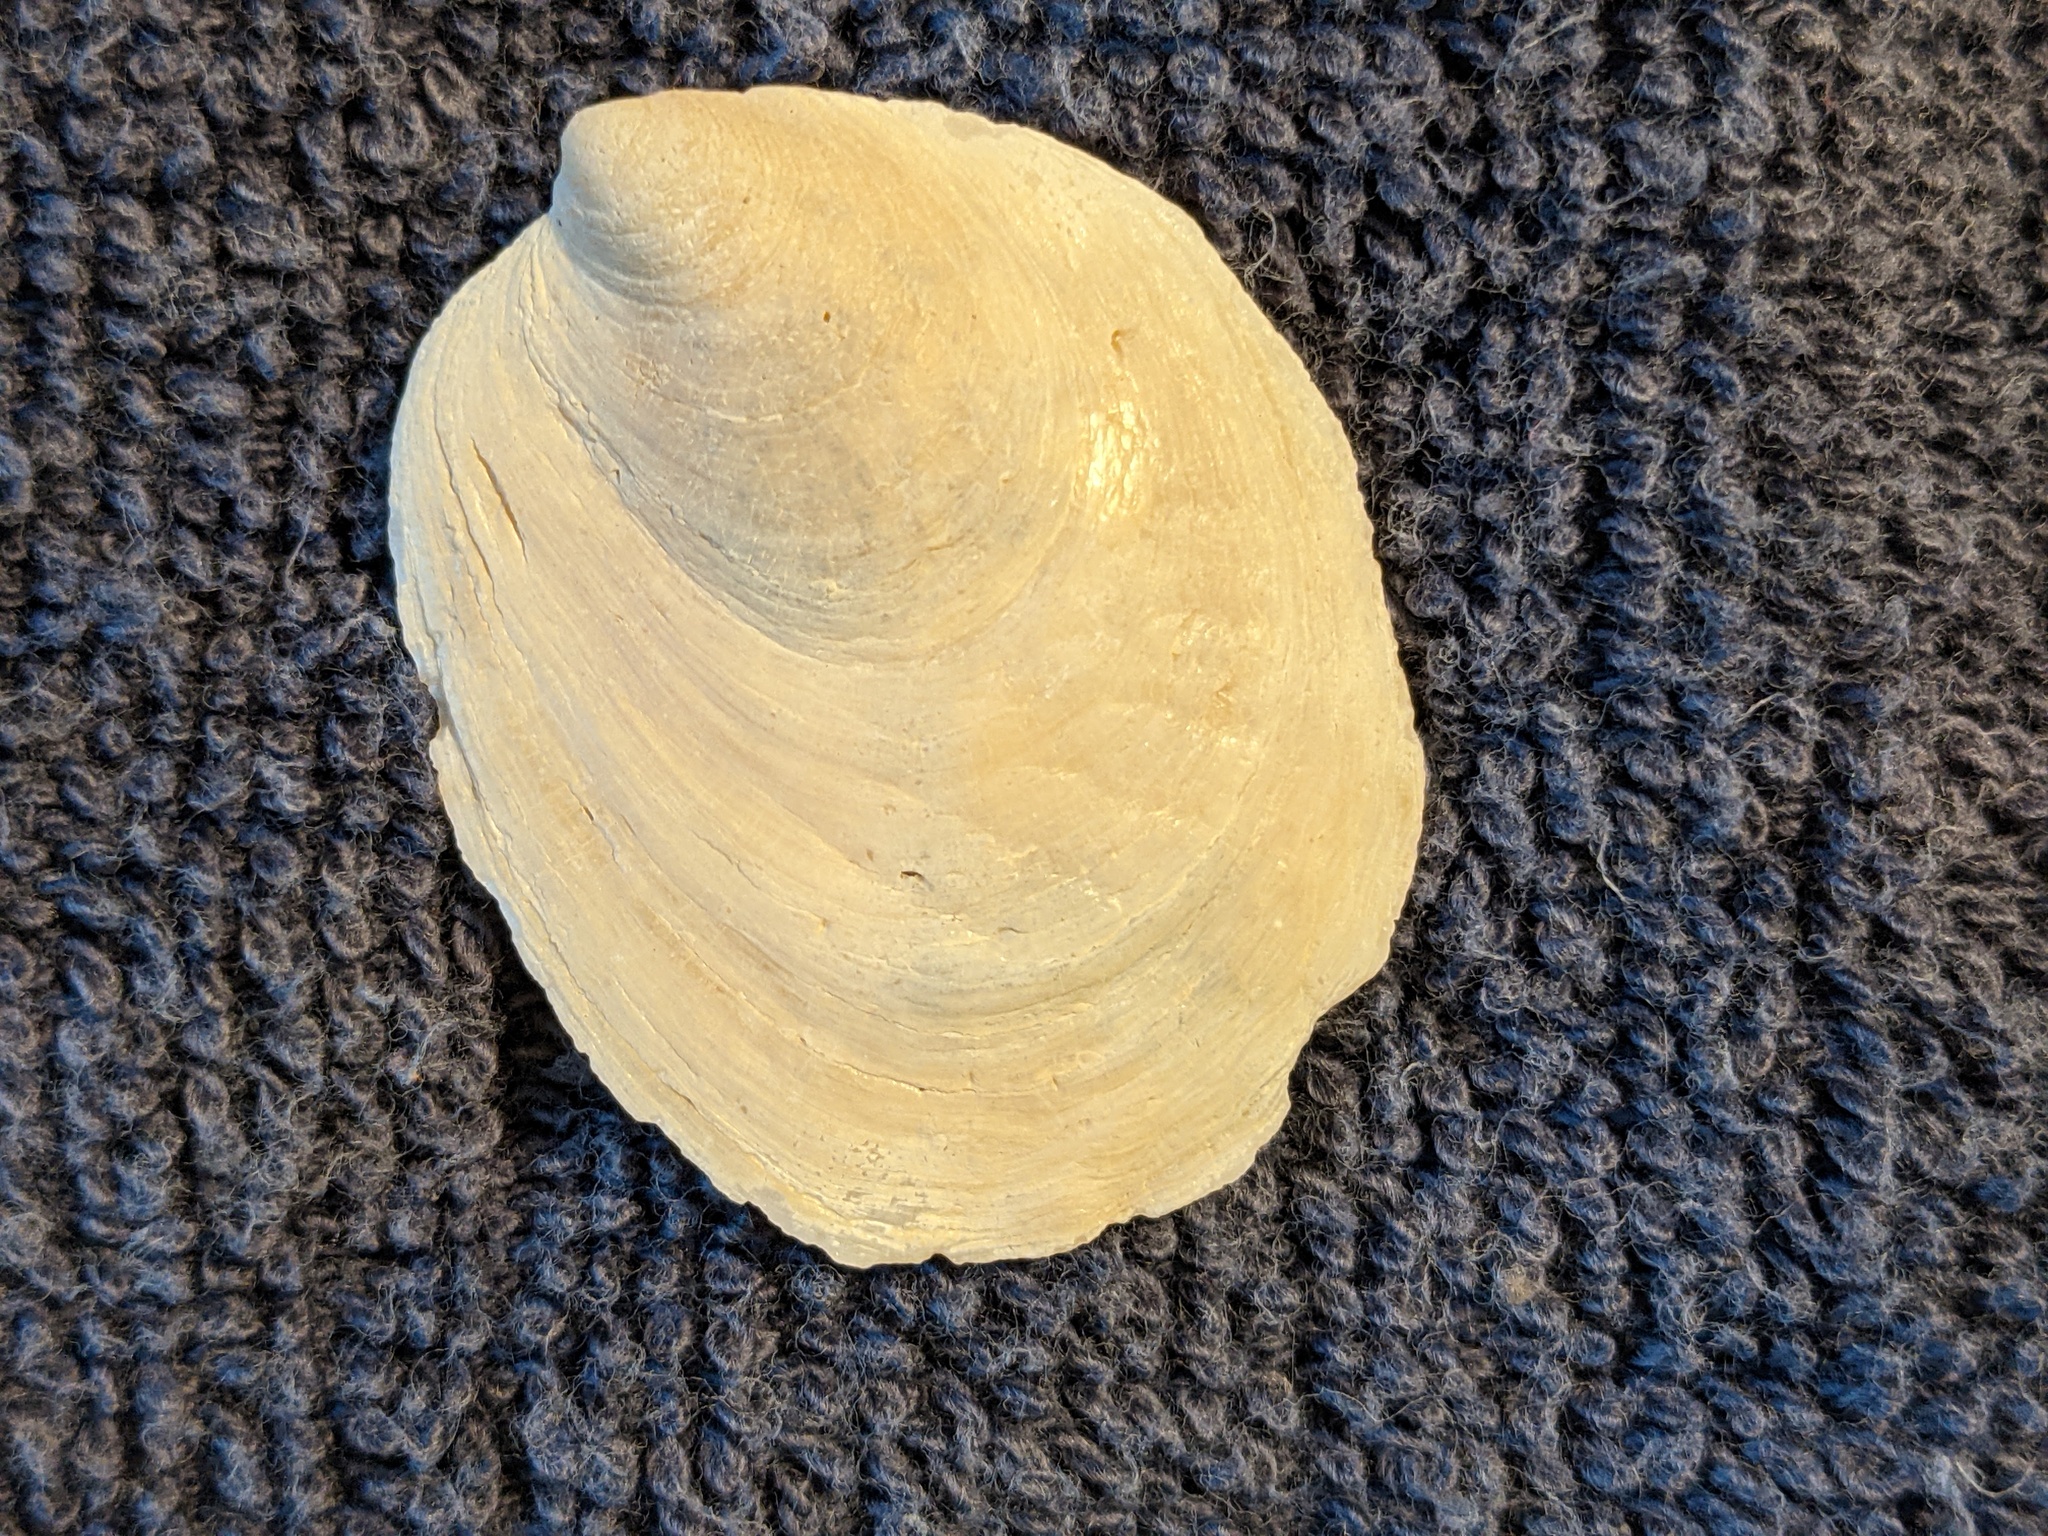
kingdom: Animalia
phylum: Mollusca
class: Gastropoda
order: Littorinimorpha
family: Calyptraeidae
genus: Crepidula
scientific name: Crepidula plana
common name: Eastern white slippersnail
